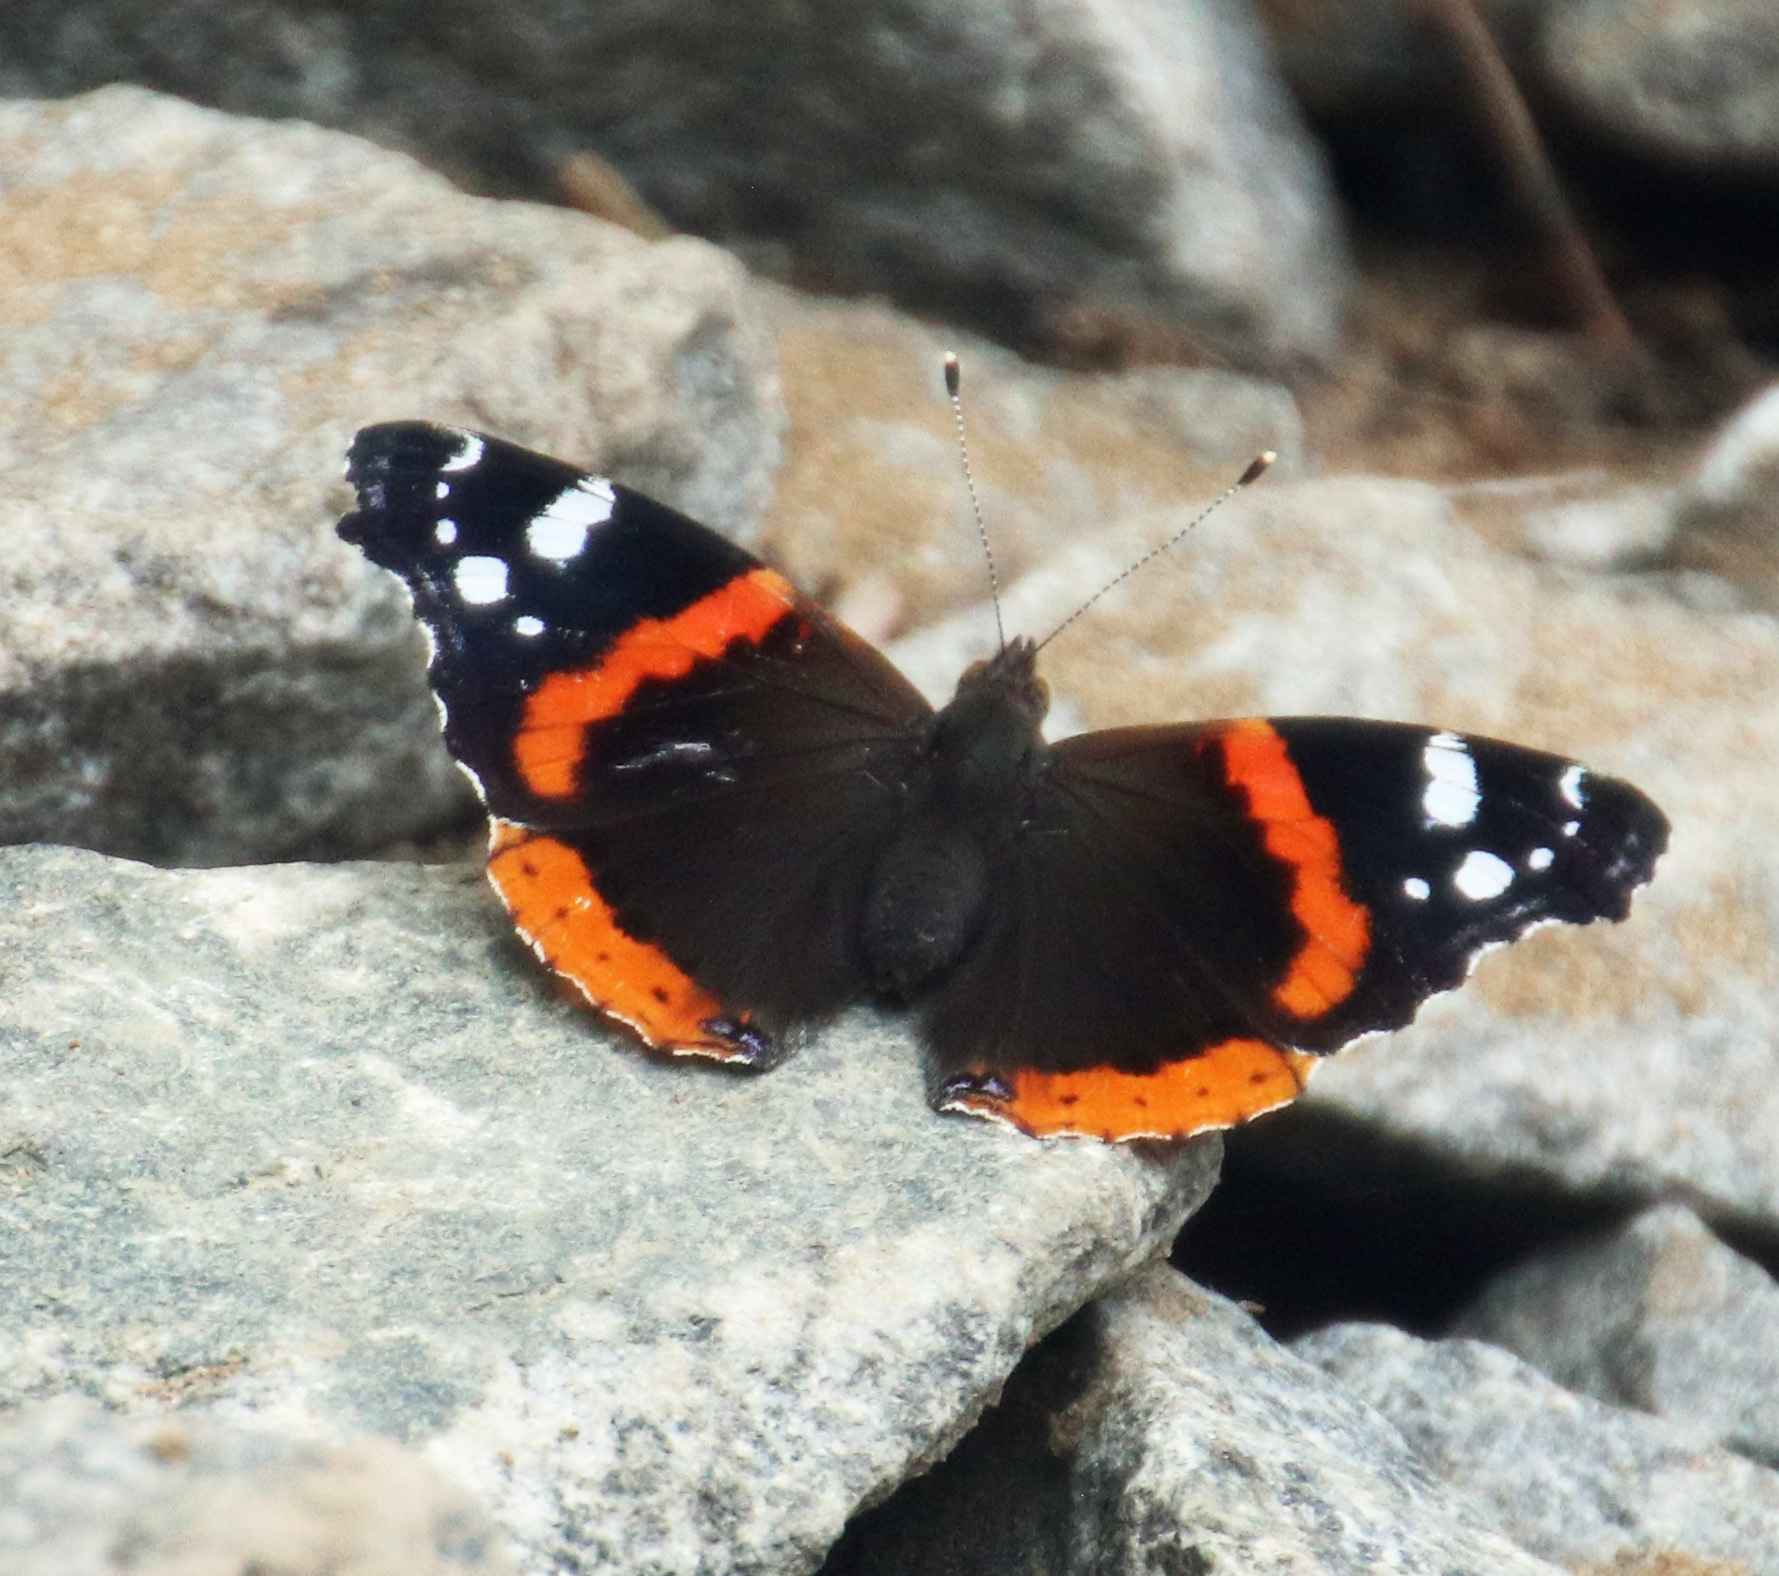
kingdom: Animalia
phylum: Arthropoda
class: Insecta
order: Lepidoptera
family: Nymphalidae
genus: Vanessa
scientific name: Vanessa atalanta
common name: Red admiral
